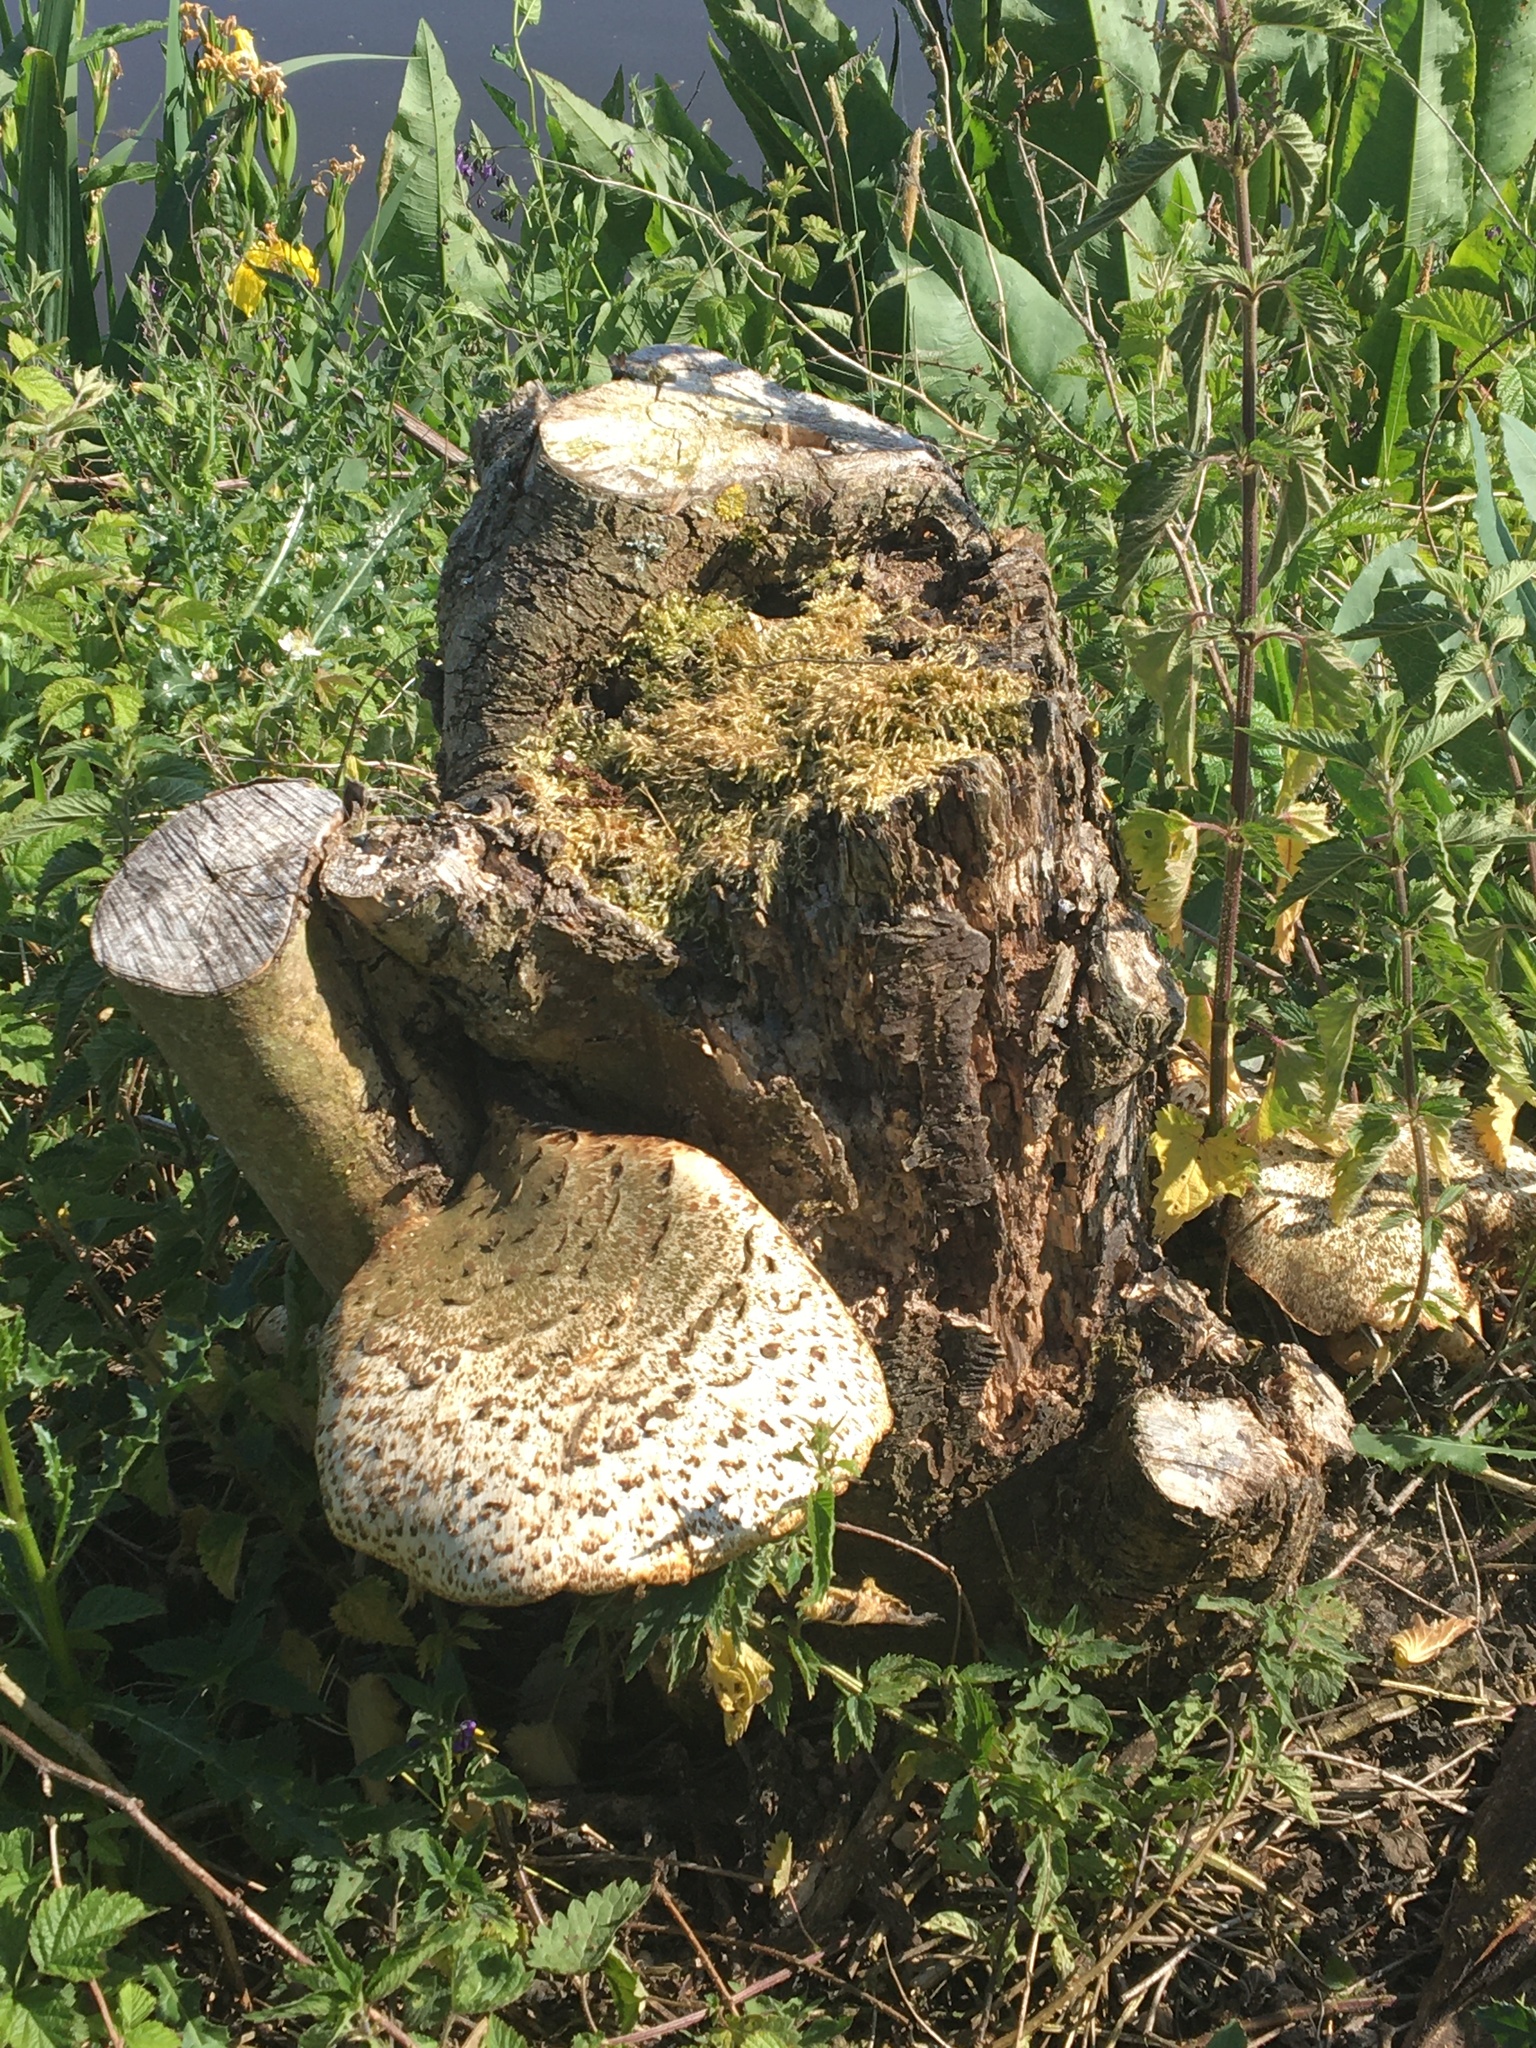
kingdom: Fungi
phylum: Basidiomycota
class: Agaricomycetes
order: Polyporales
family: Polyporaceae
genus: Cerioporus
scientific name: Cerioporus squamosus
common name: Dryad's saddle
